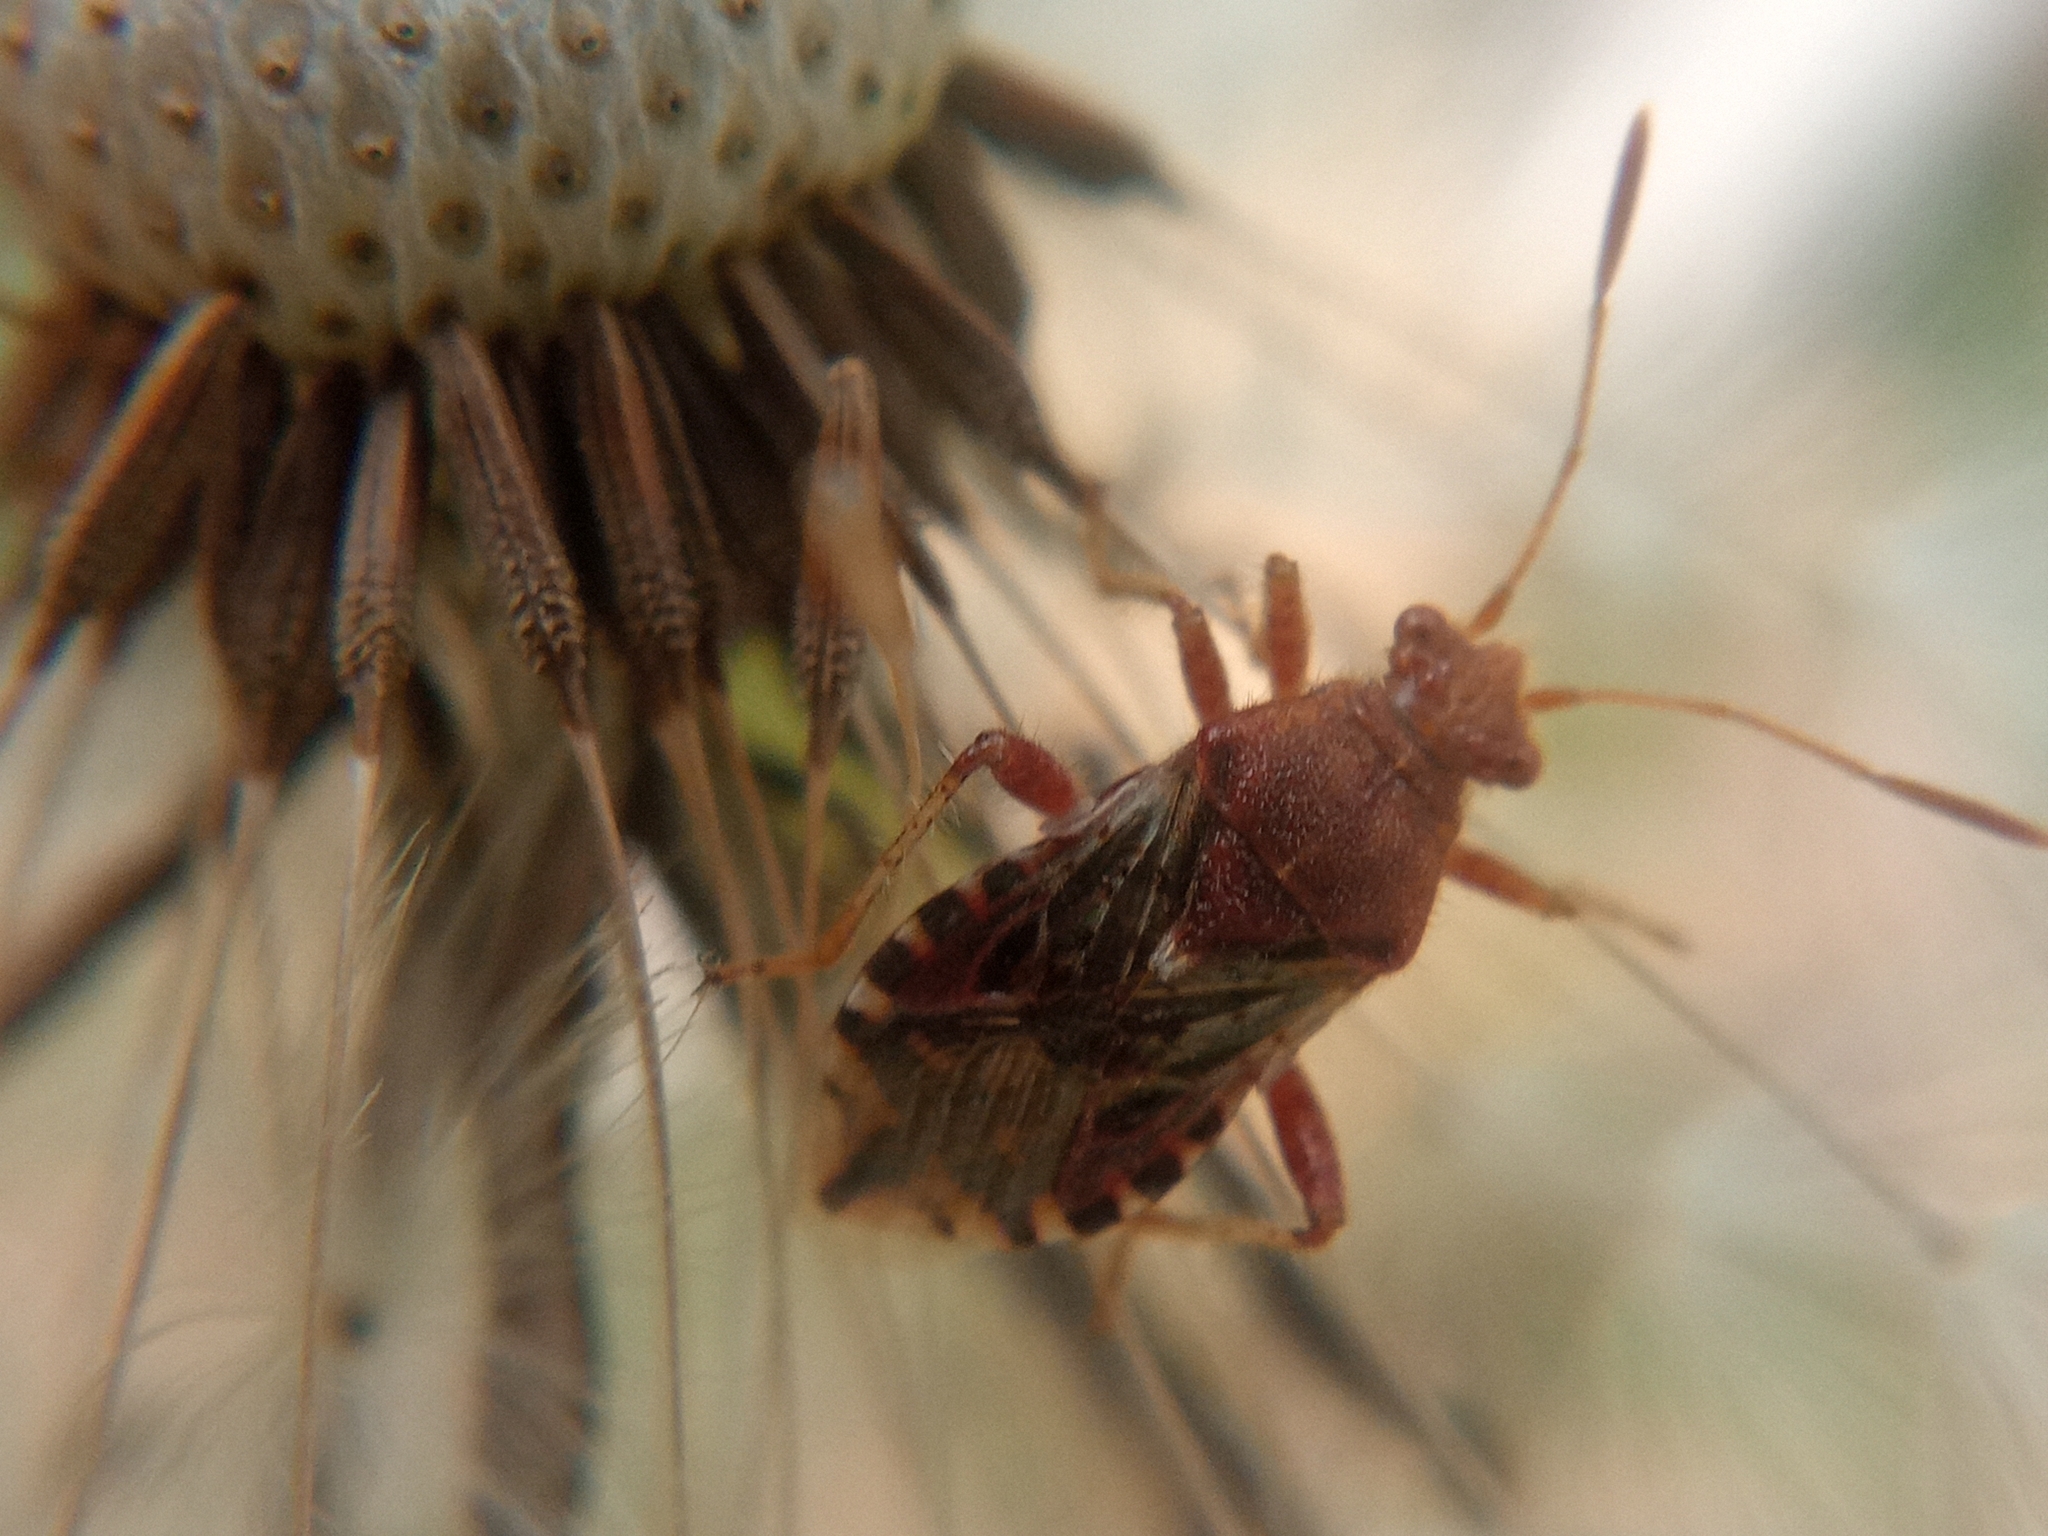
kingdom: Animalia
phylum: Arthropoda
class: Insecta
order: Hemiptera
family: Rhopalidae
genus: Rhopalus
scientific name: Rhopalus subrufus
